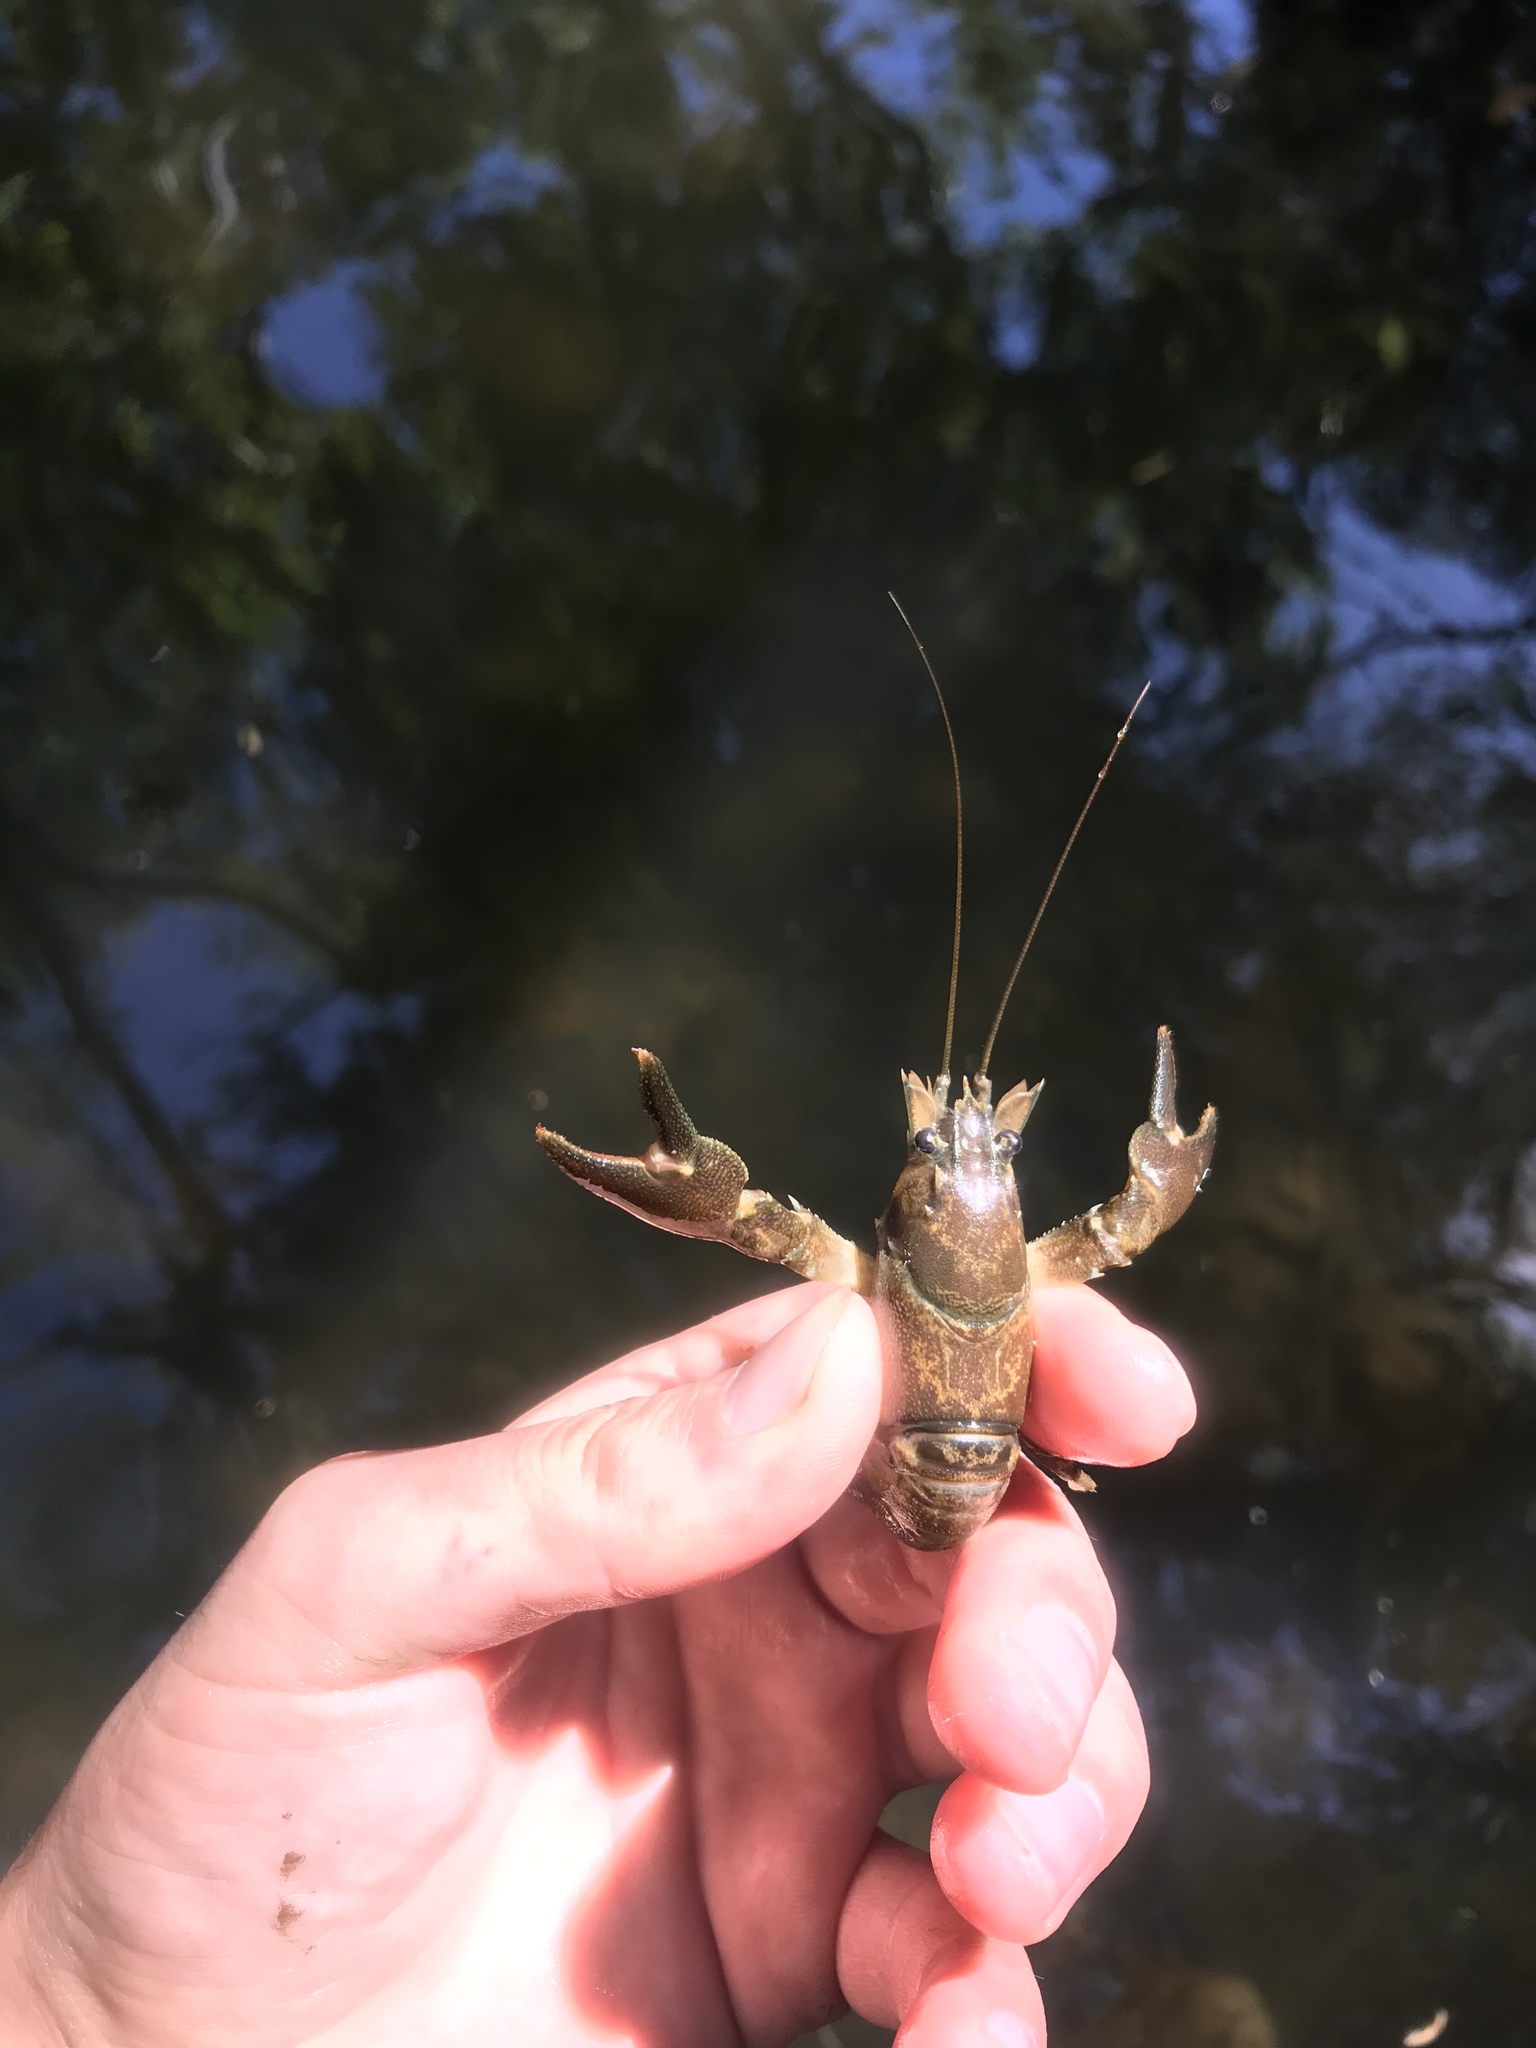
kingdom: Animalia
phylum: Arthropoda
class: Malacostraca
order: Decapoda
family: Astacidae
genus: Pacifastacus
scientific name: Pacifastacus leniusculus
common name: Signal crayfish
